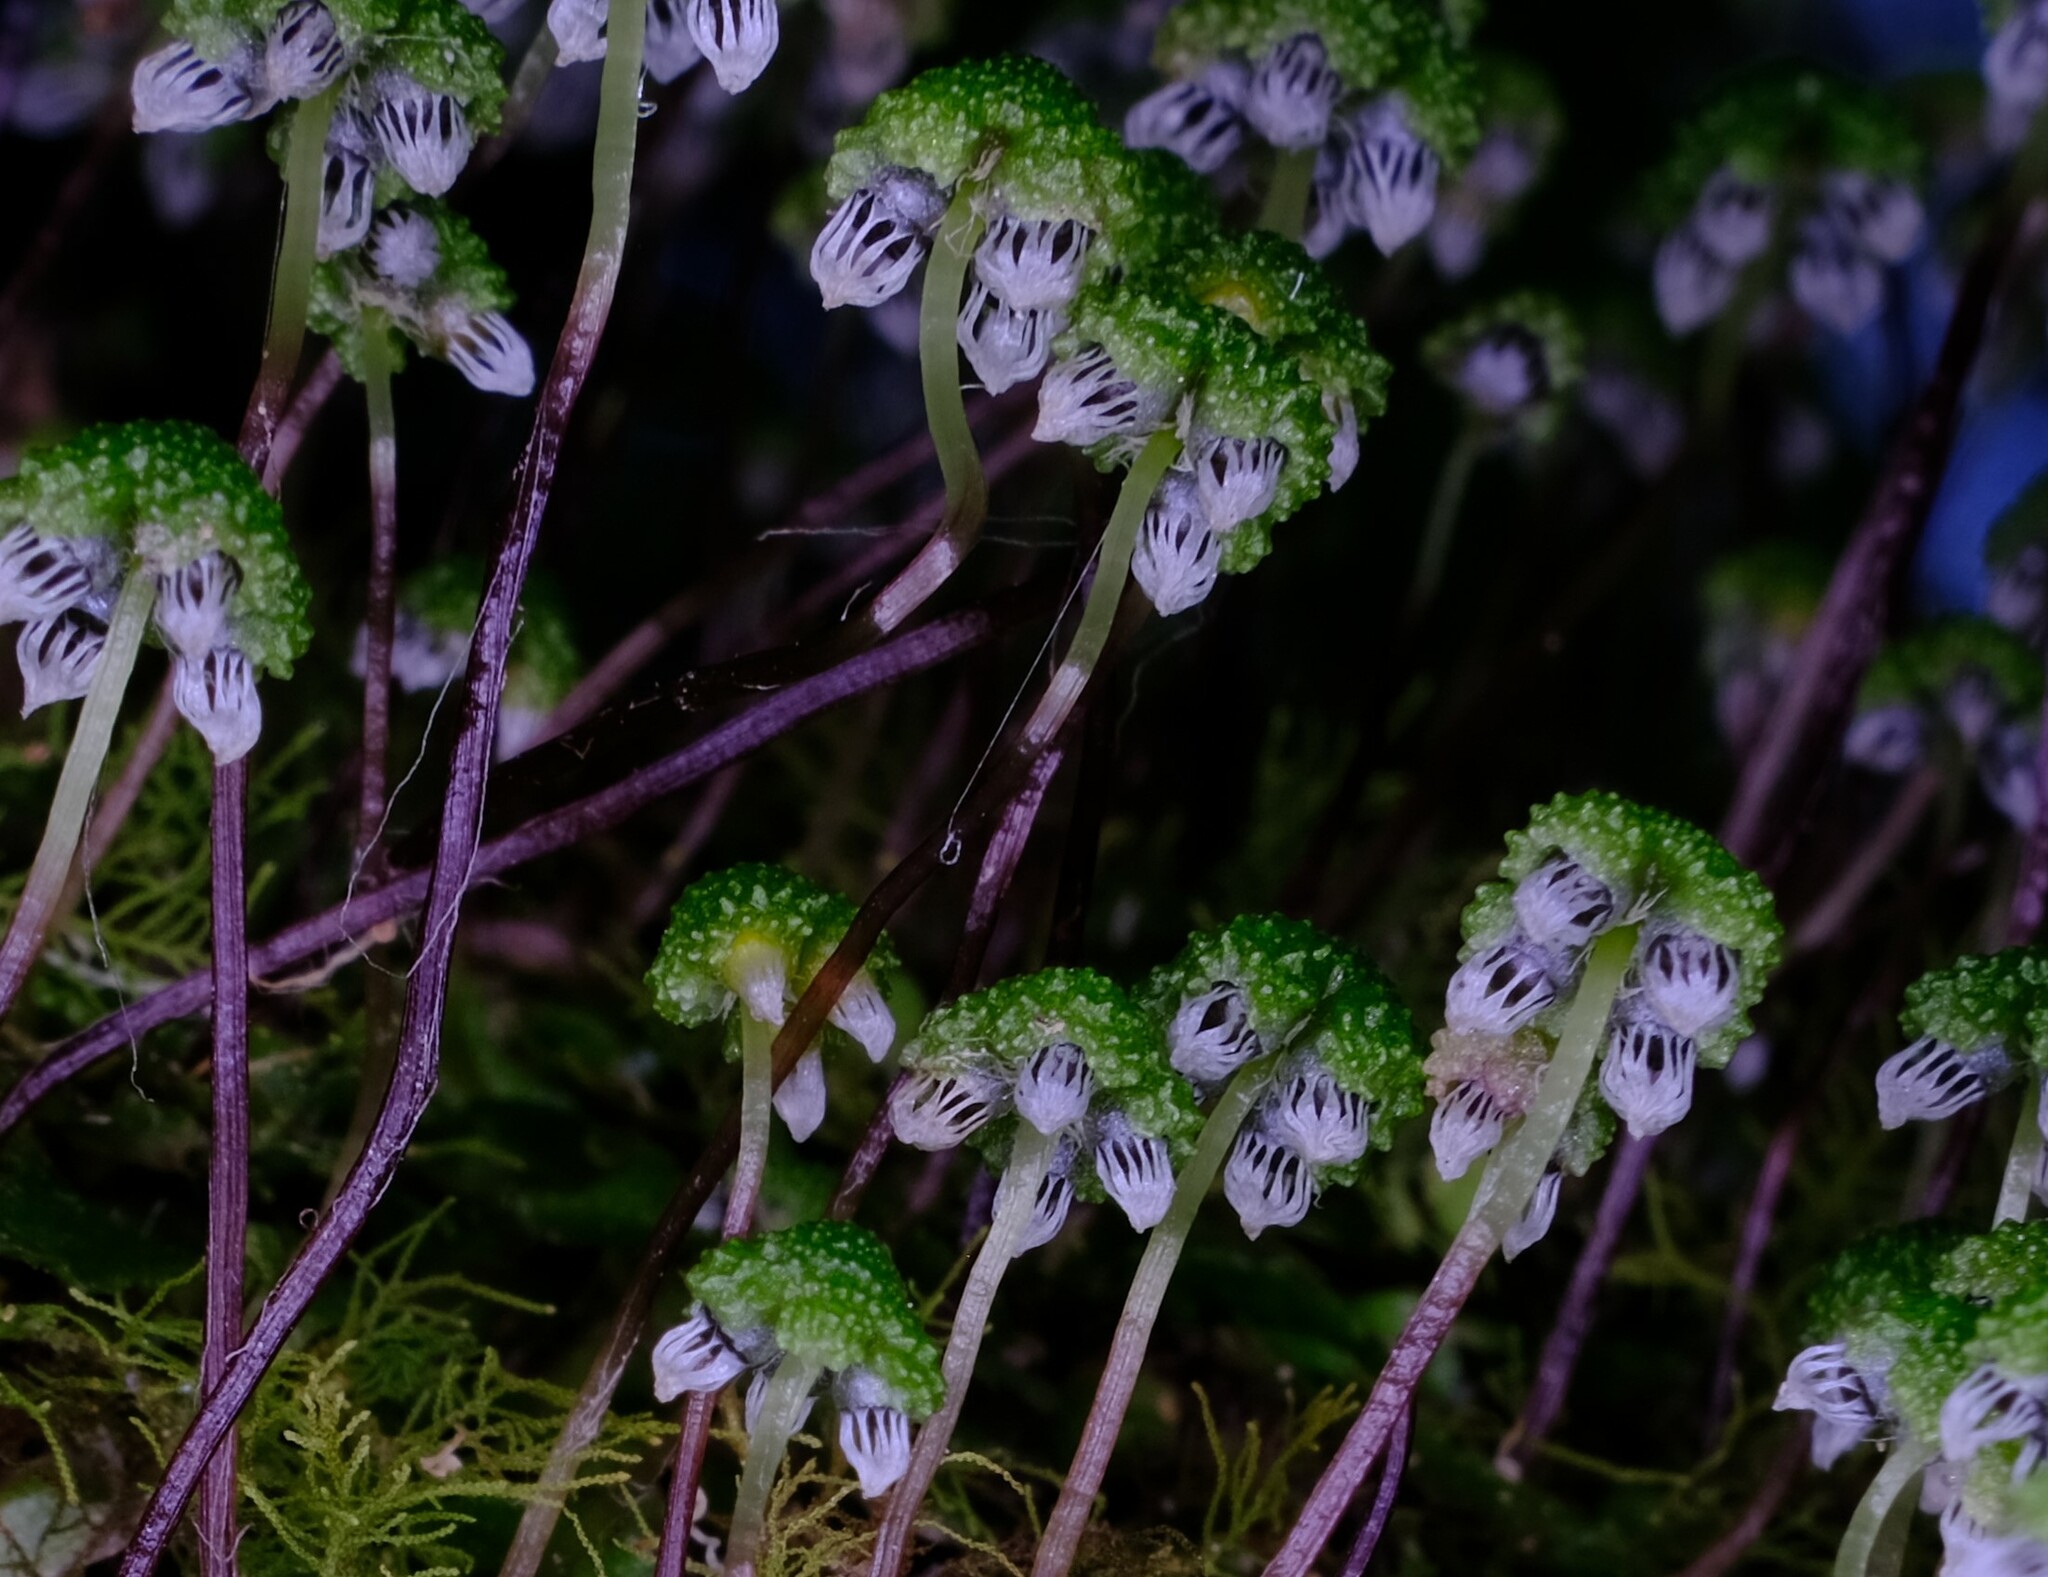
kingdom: Plantae
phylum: Marchantiophyta
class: Marchantiopsida
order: Marchantiales
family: Aytoniaceae
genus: Asterella
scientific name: Asterella drummondii
